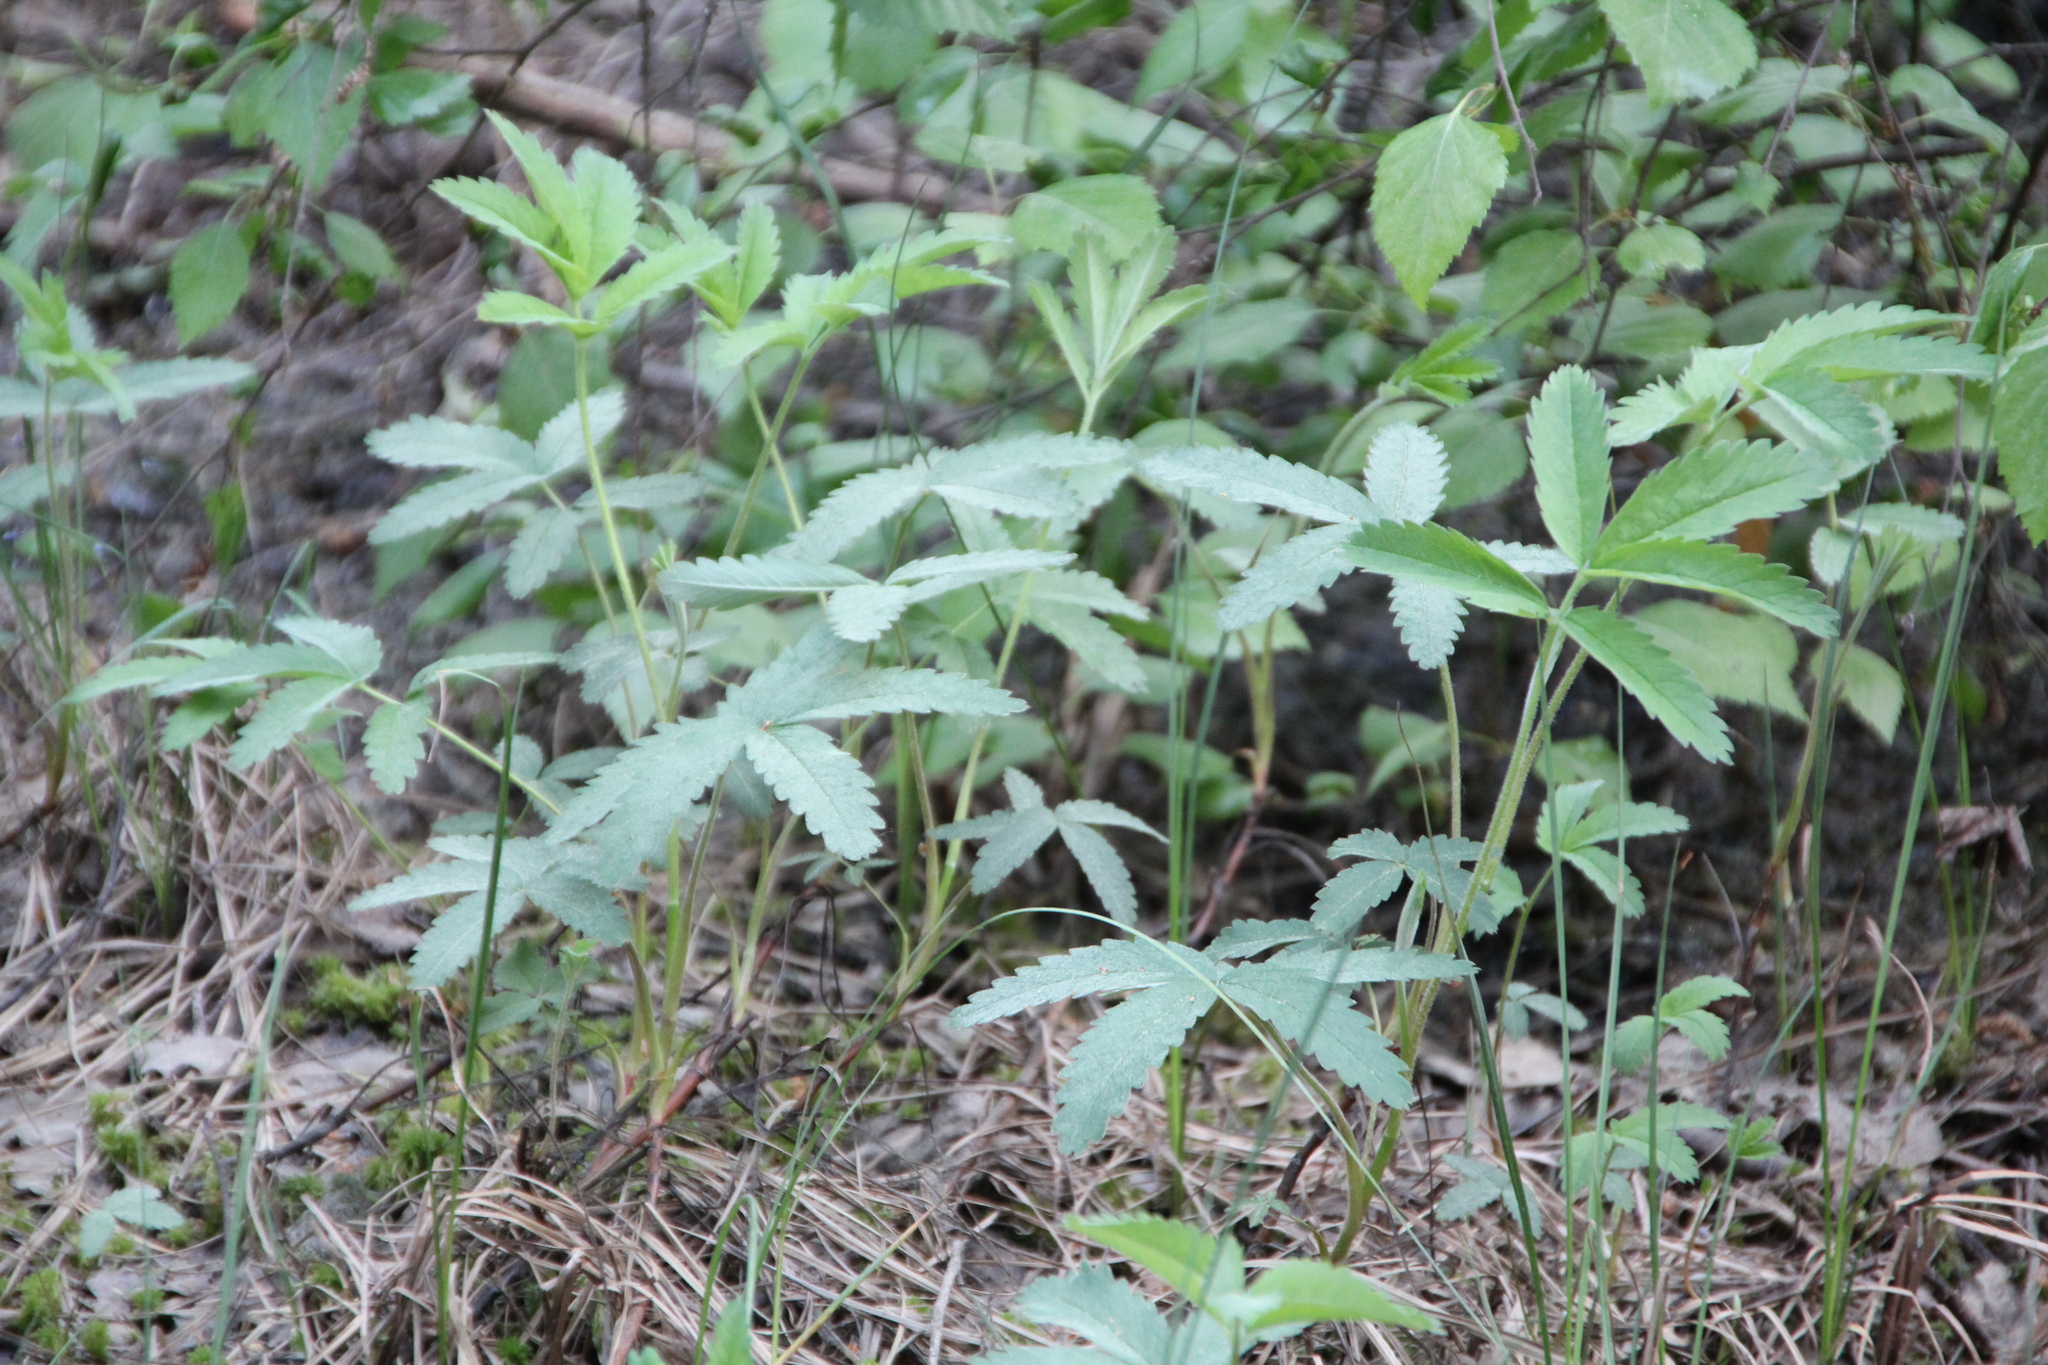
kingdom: Plantae
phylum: Tracheophyta
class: Magnoliopsida
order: Rosales
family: Rosaceae
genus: Comarum
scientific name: Comarum palustre
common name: Marsh cinquefoil
